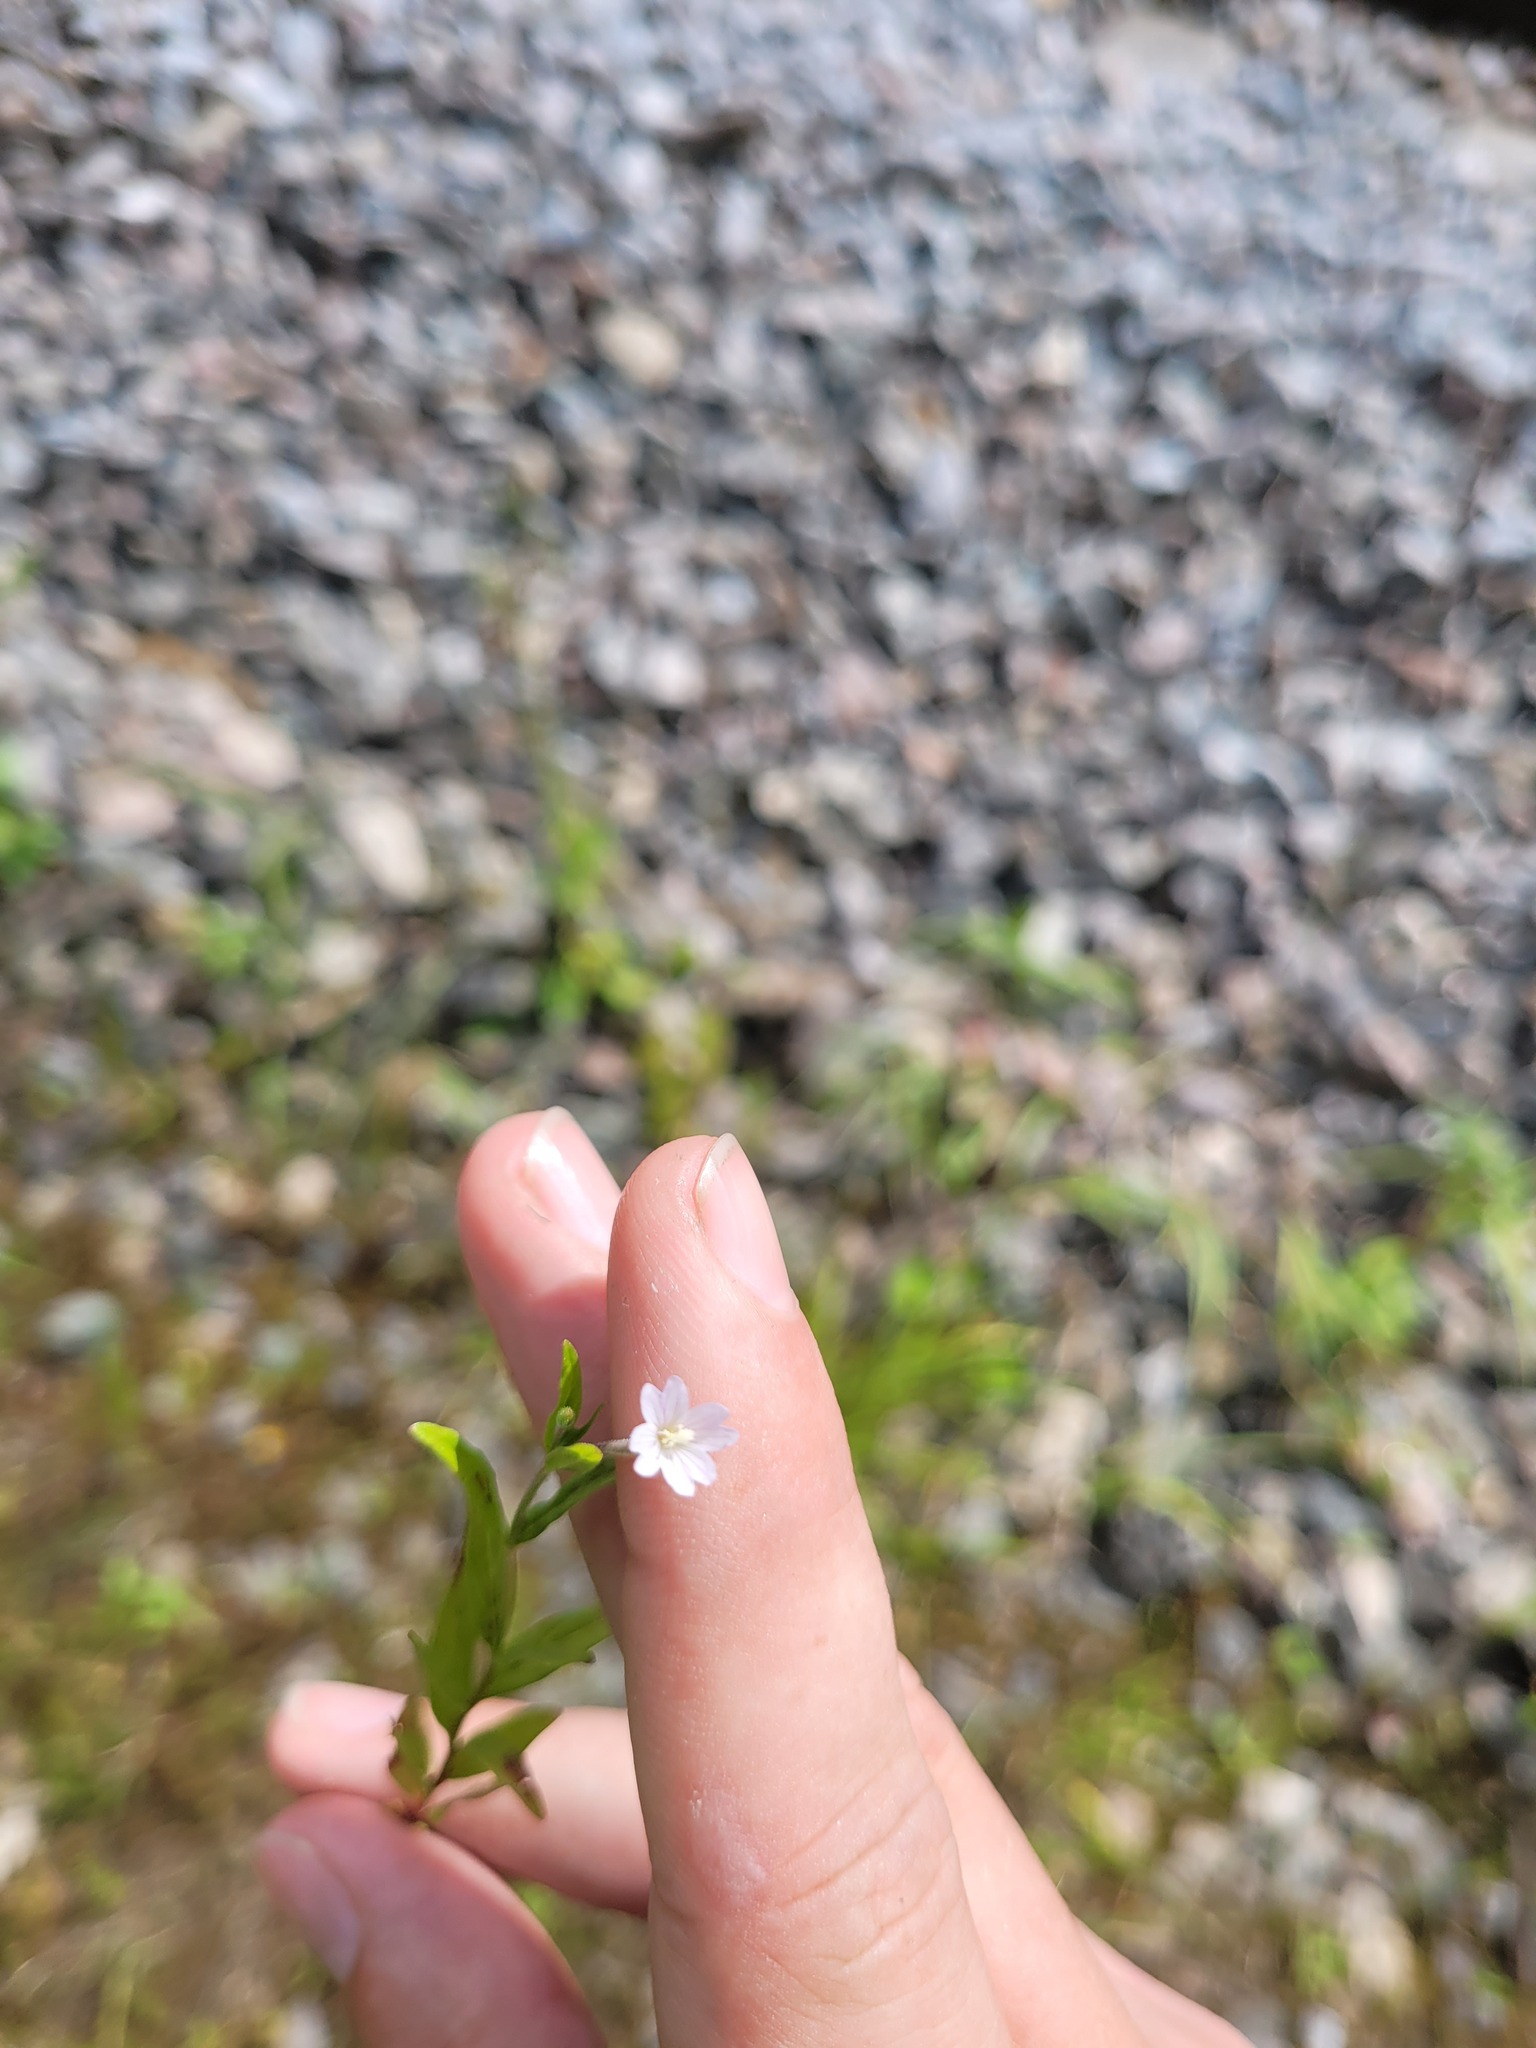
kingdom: Plantae
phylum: Tracheophyta
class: Magnoliopsida
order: Myrtales
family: Onagraceae
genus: Epilobium
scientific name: Epilobium palustre
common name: Marsh willowherb
